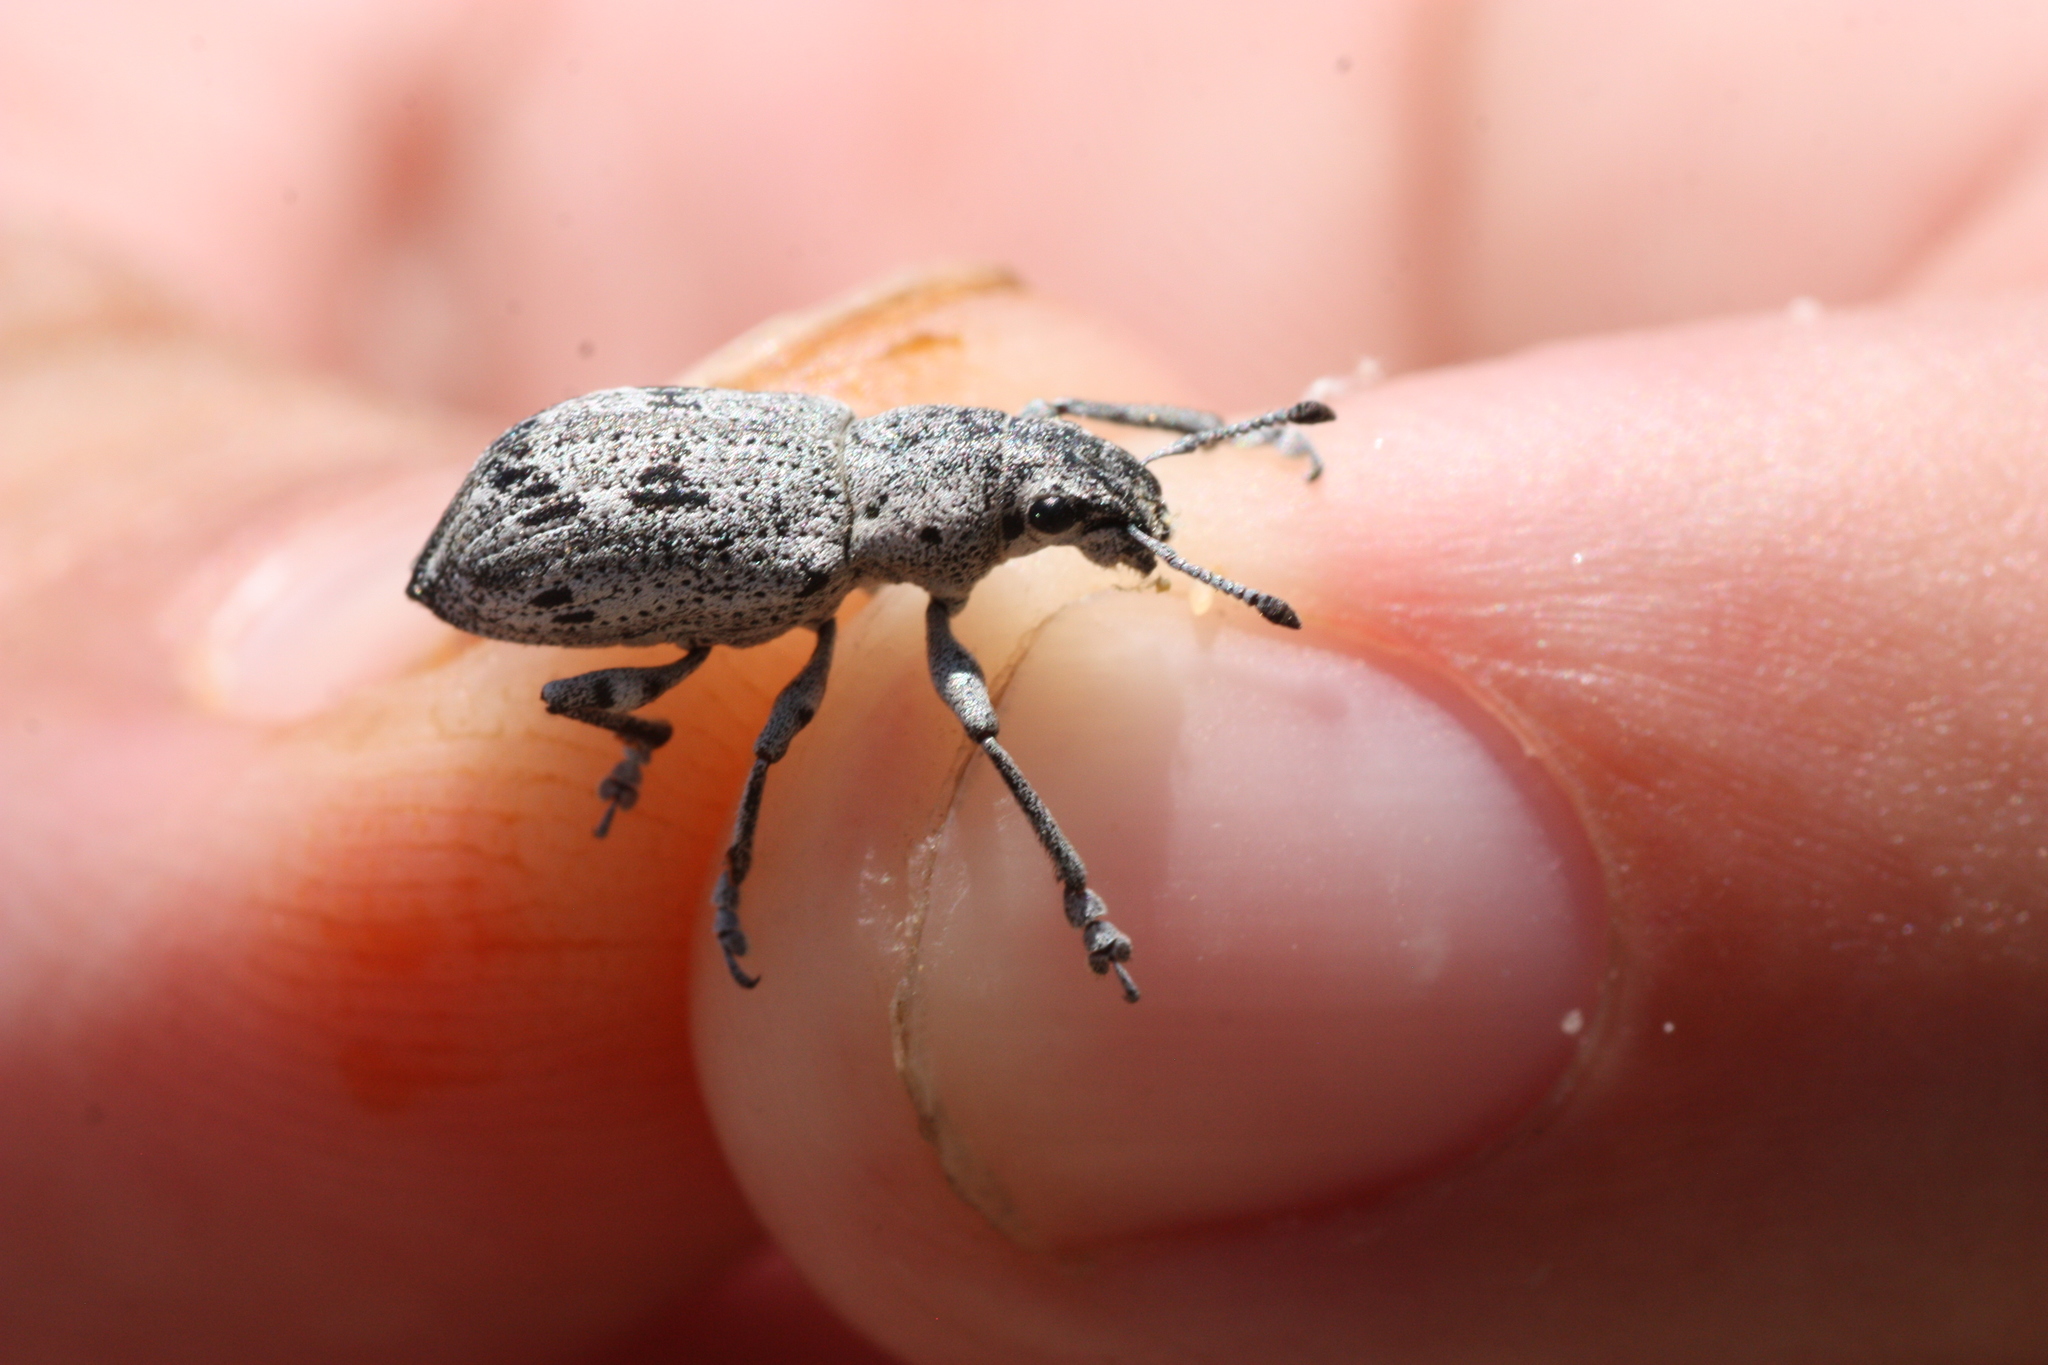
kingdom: Animalia
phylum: Arthropoda
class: Insecta
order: Coleoptera
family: Curculionidae
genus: Ericydeus
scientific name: Ericydeus lautus
